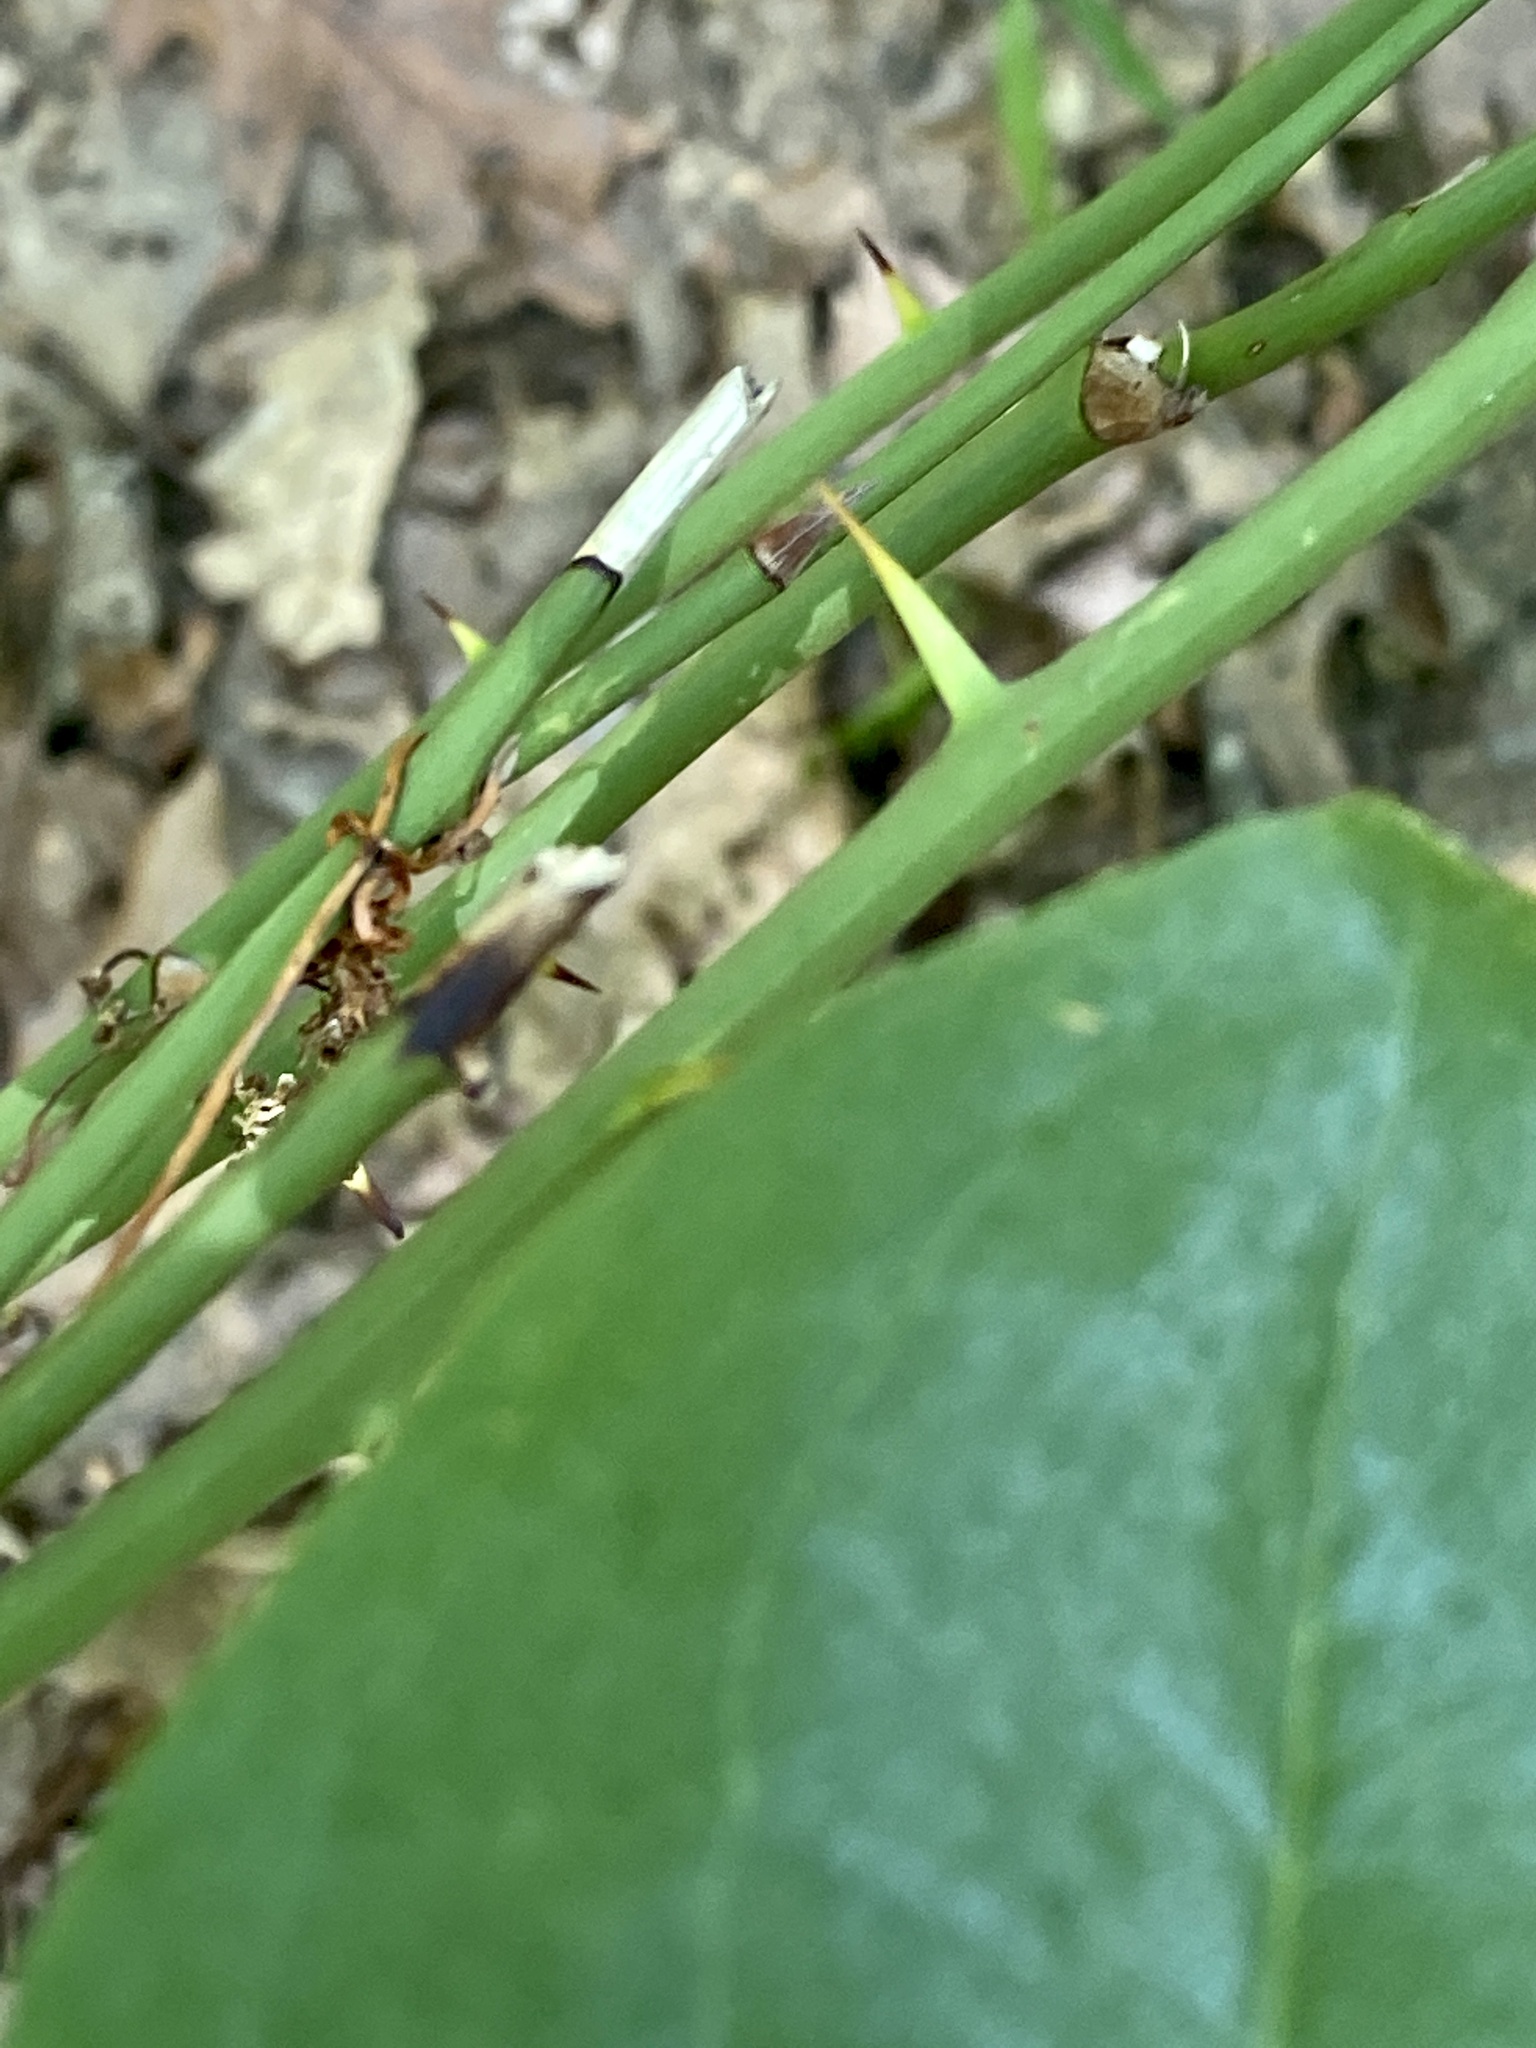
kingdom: Plantae
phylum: Tracheophyta
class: Liliopsida
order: Liliales
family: Smilacaceae
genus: Smilax
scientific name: Smilax rotundifolia
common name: Bullbriar
